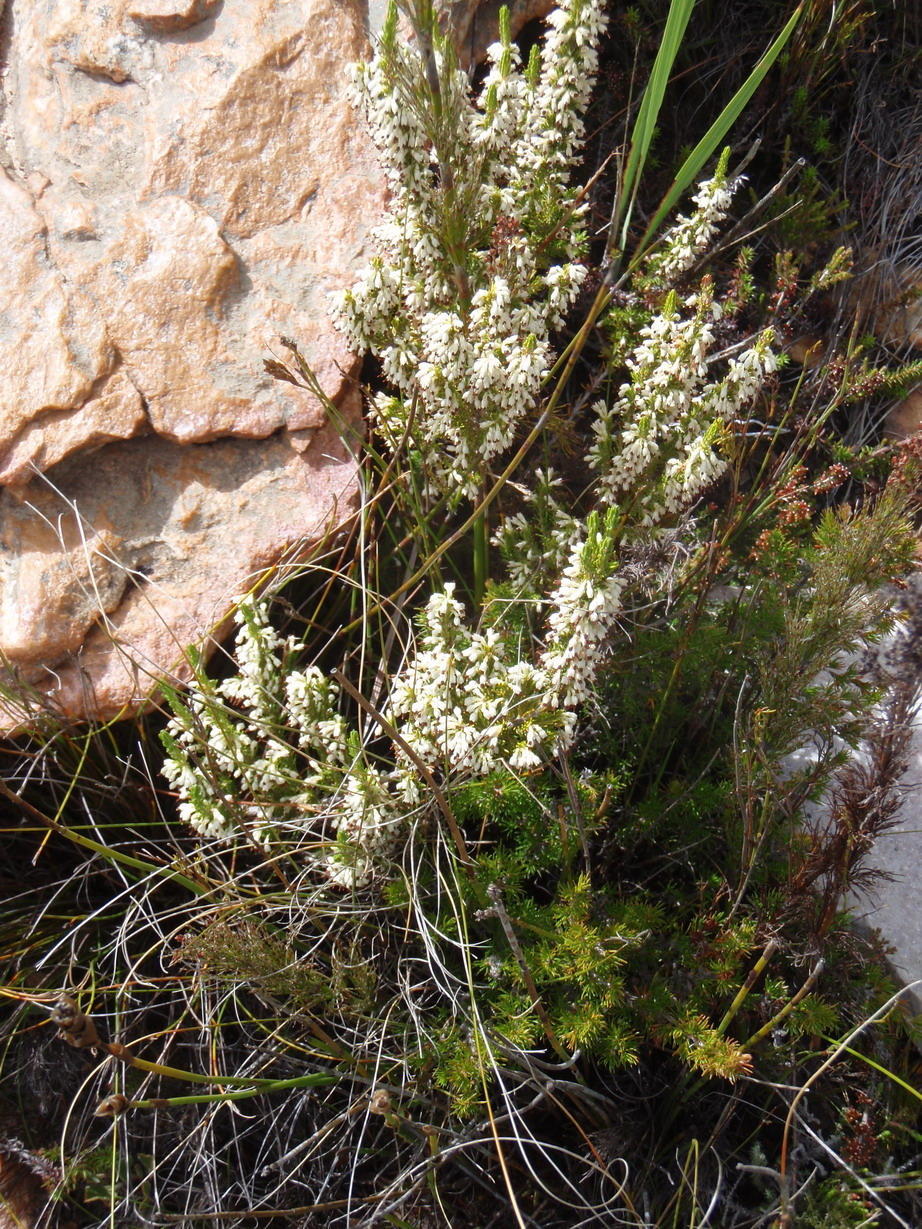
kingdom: Plantae
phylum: Tracheophyta
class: Magnoliopsida
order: Ericales
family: Ericaceae
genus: Erica
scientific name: Erica imbricata
